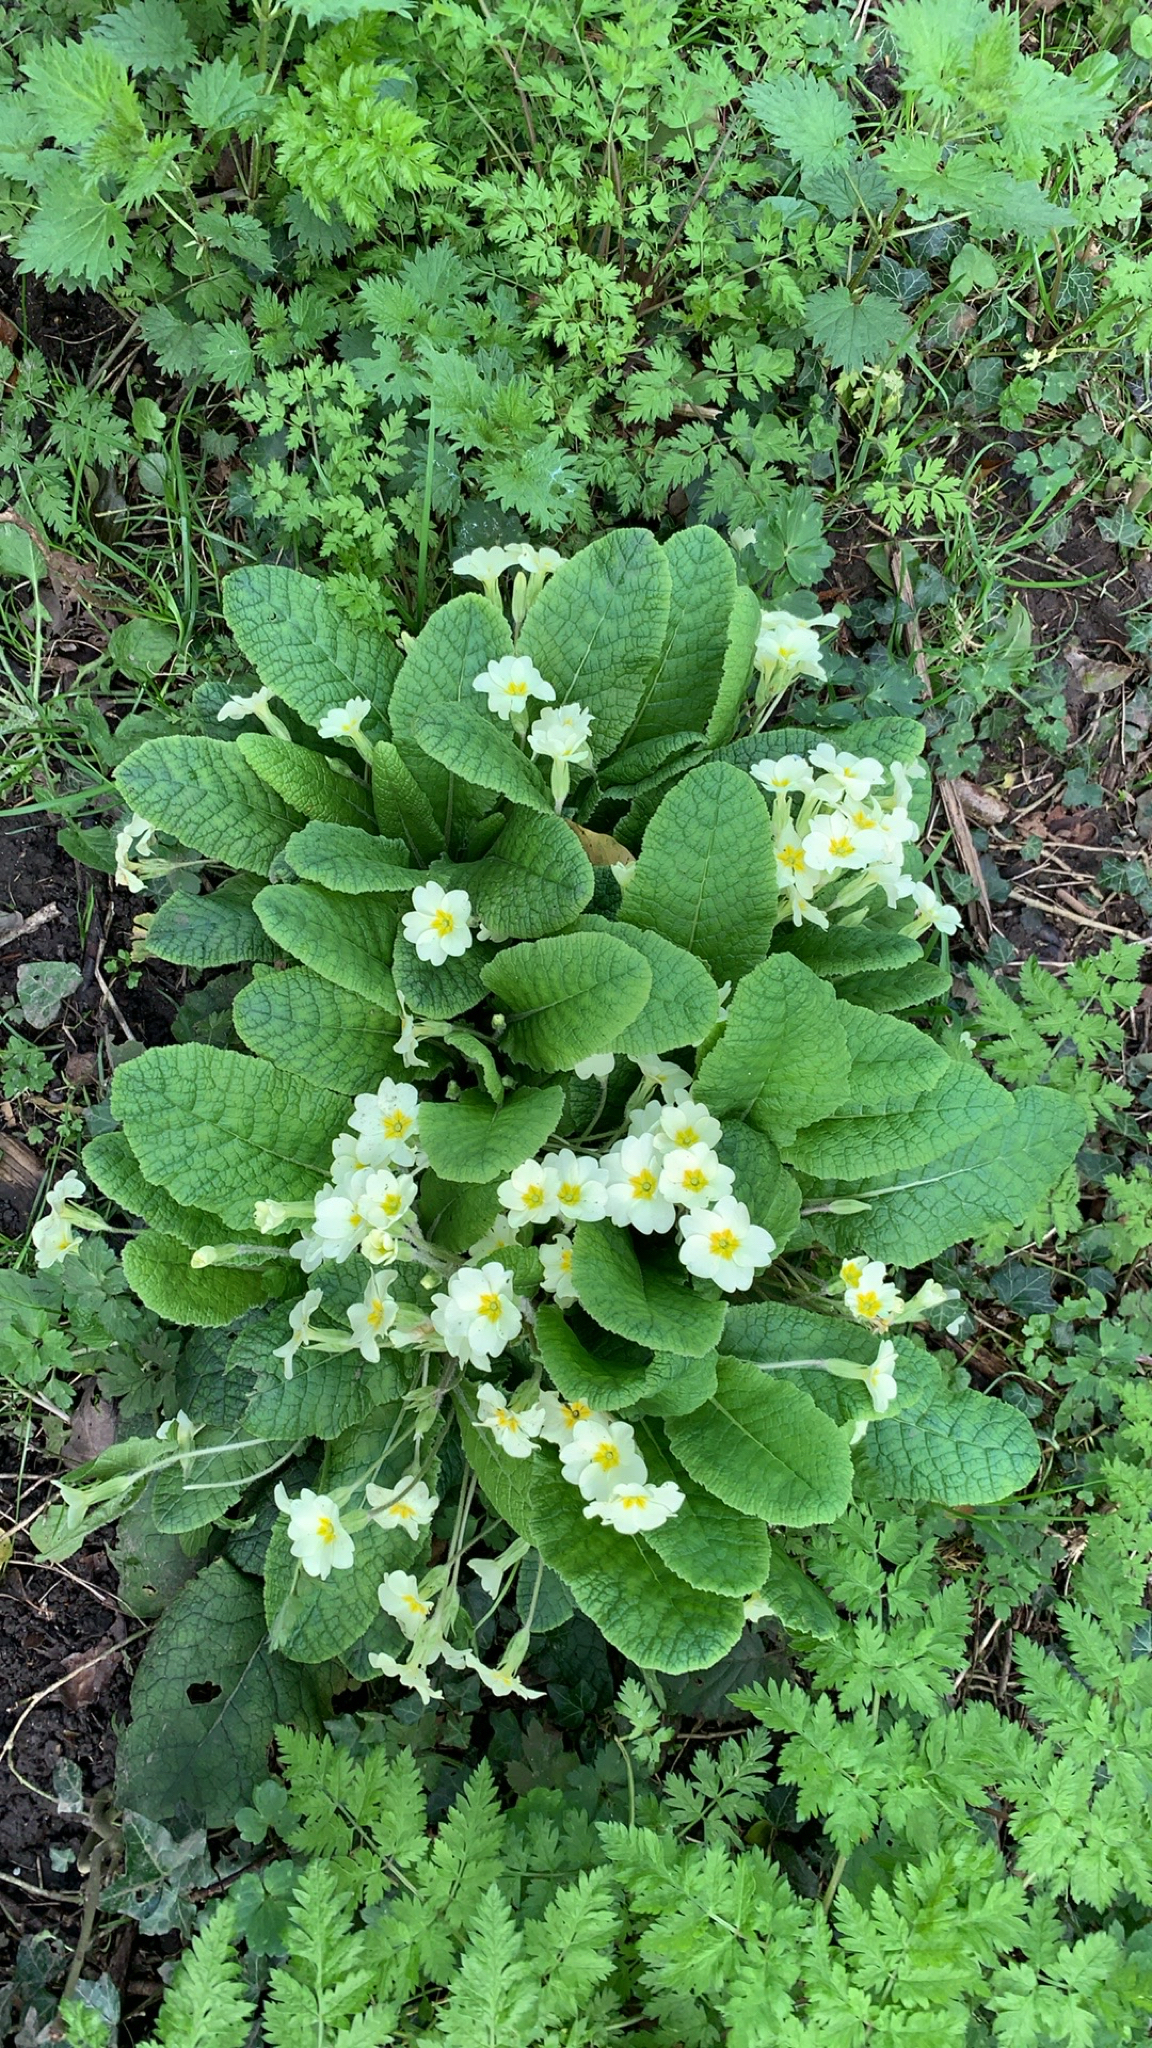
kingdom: Plantae
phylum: Tracheophyta
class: Magnoliopsida
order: Ericales
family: Primulaceae
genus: Primula
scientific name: Primula vulgaris
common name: Primrose
